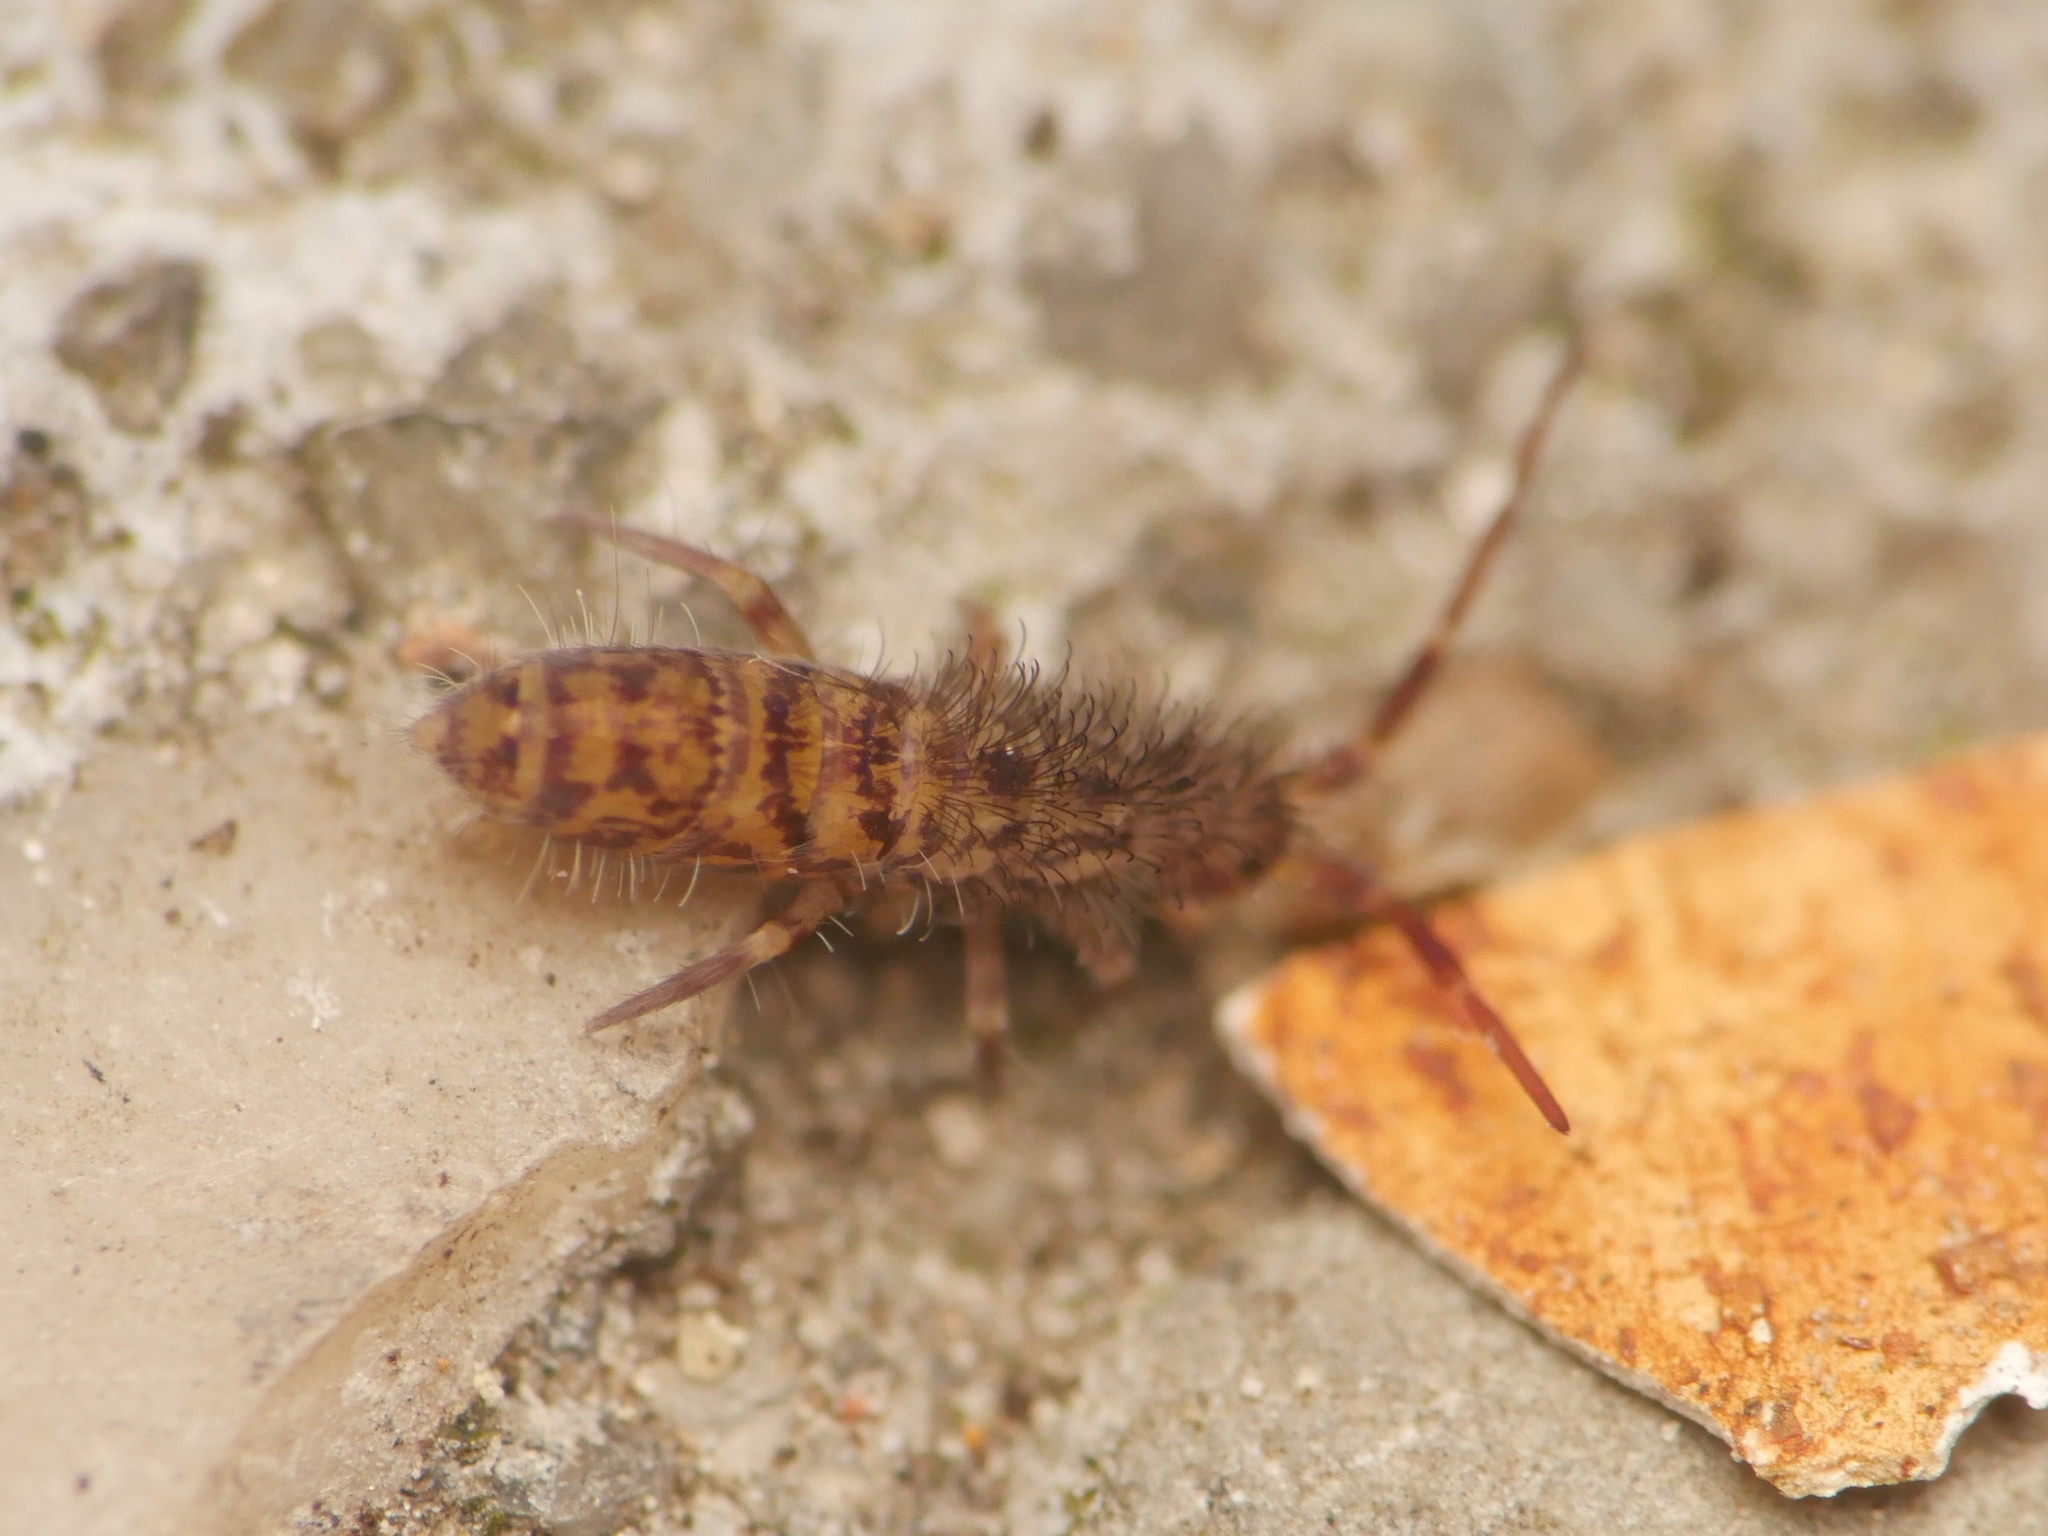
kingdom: Animalia
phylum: Arthropoda
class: Collembola
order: Entomobryomorpha
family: Orchesellidae
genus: Orchesella
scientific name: Orchesella villosa
